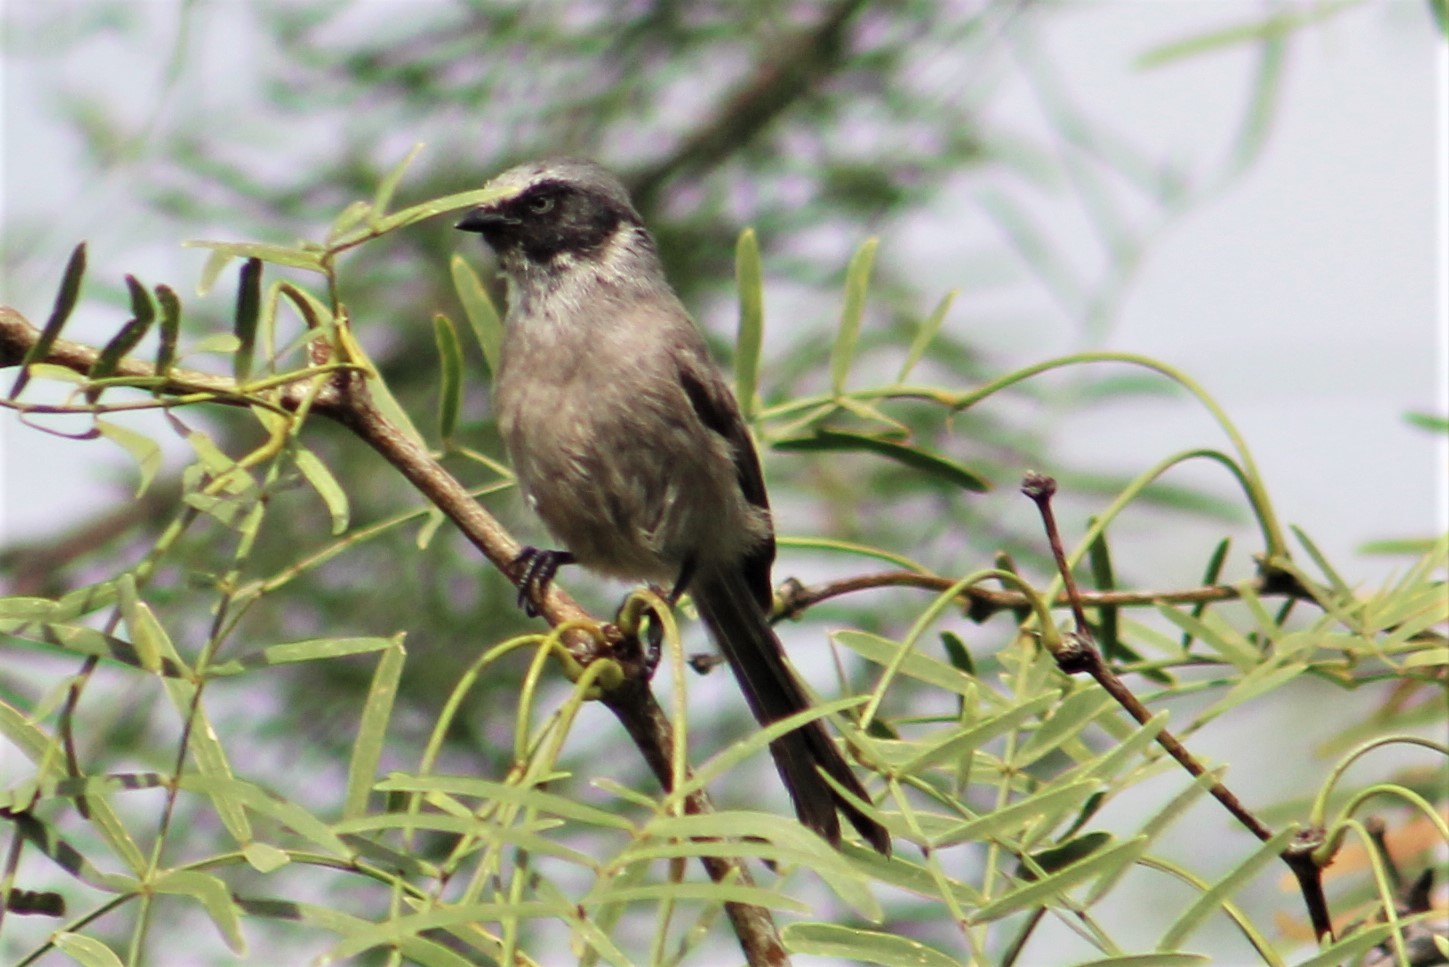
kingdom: Animalia
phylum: Chordata
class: Aves
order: Passeriformes
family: Aegithalidae
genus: Psaltriparus
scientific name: Psaltriparus minimus
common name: American bushtit
